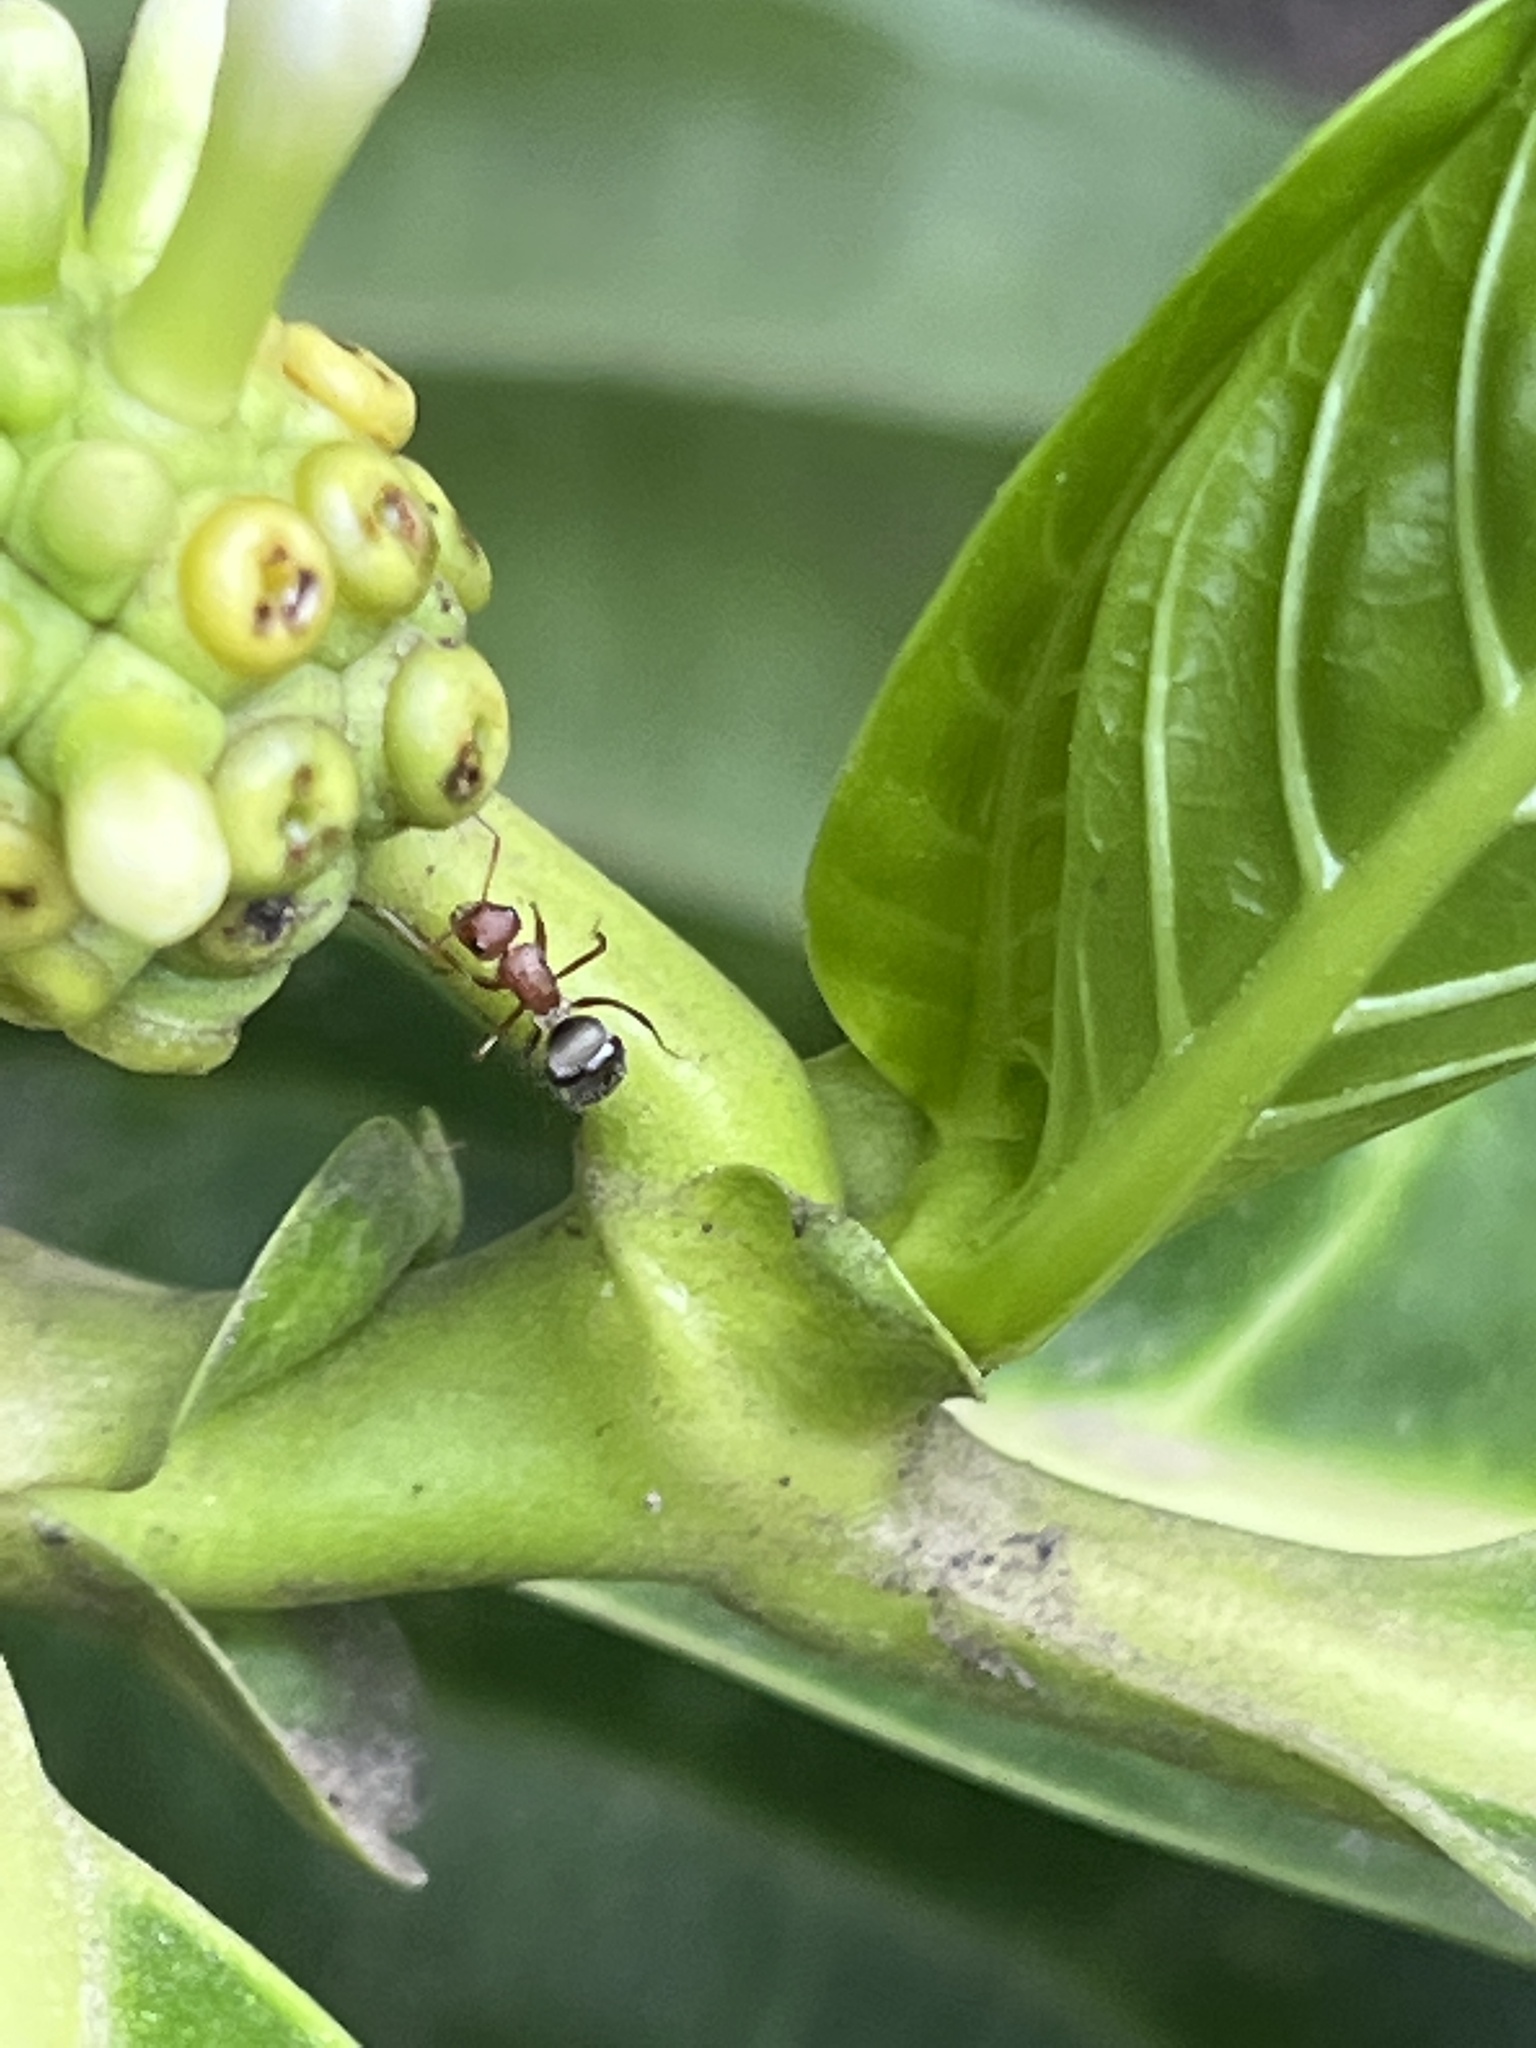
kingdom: Animalia
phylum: Arthropoda
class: Insecta
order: Hymenoptera
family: Formicidae
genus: Camponotus
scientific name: Camponotus planatus
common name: Compact carpenter ant
